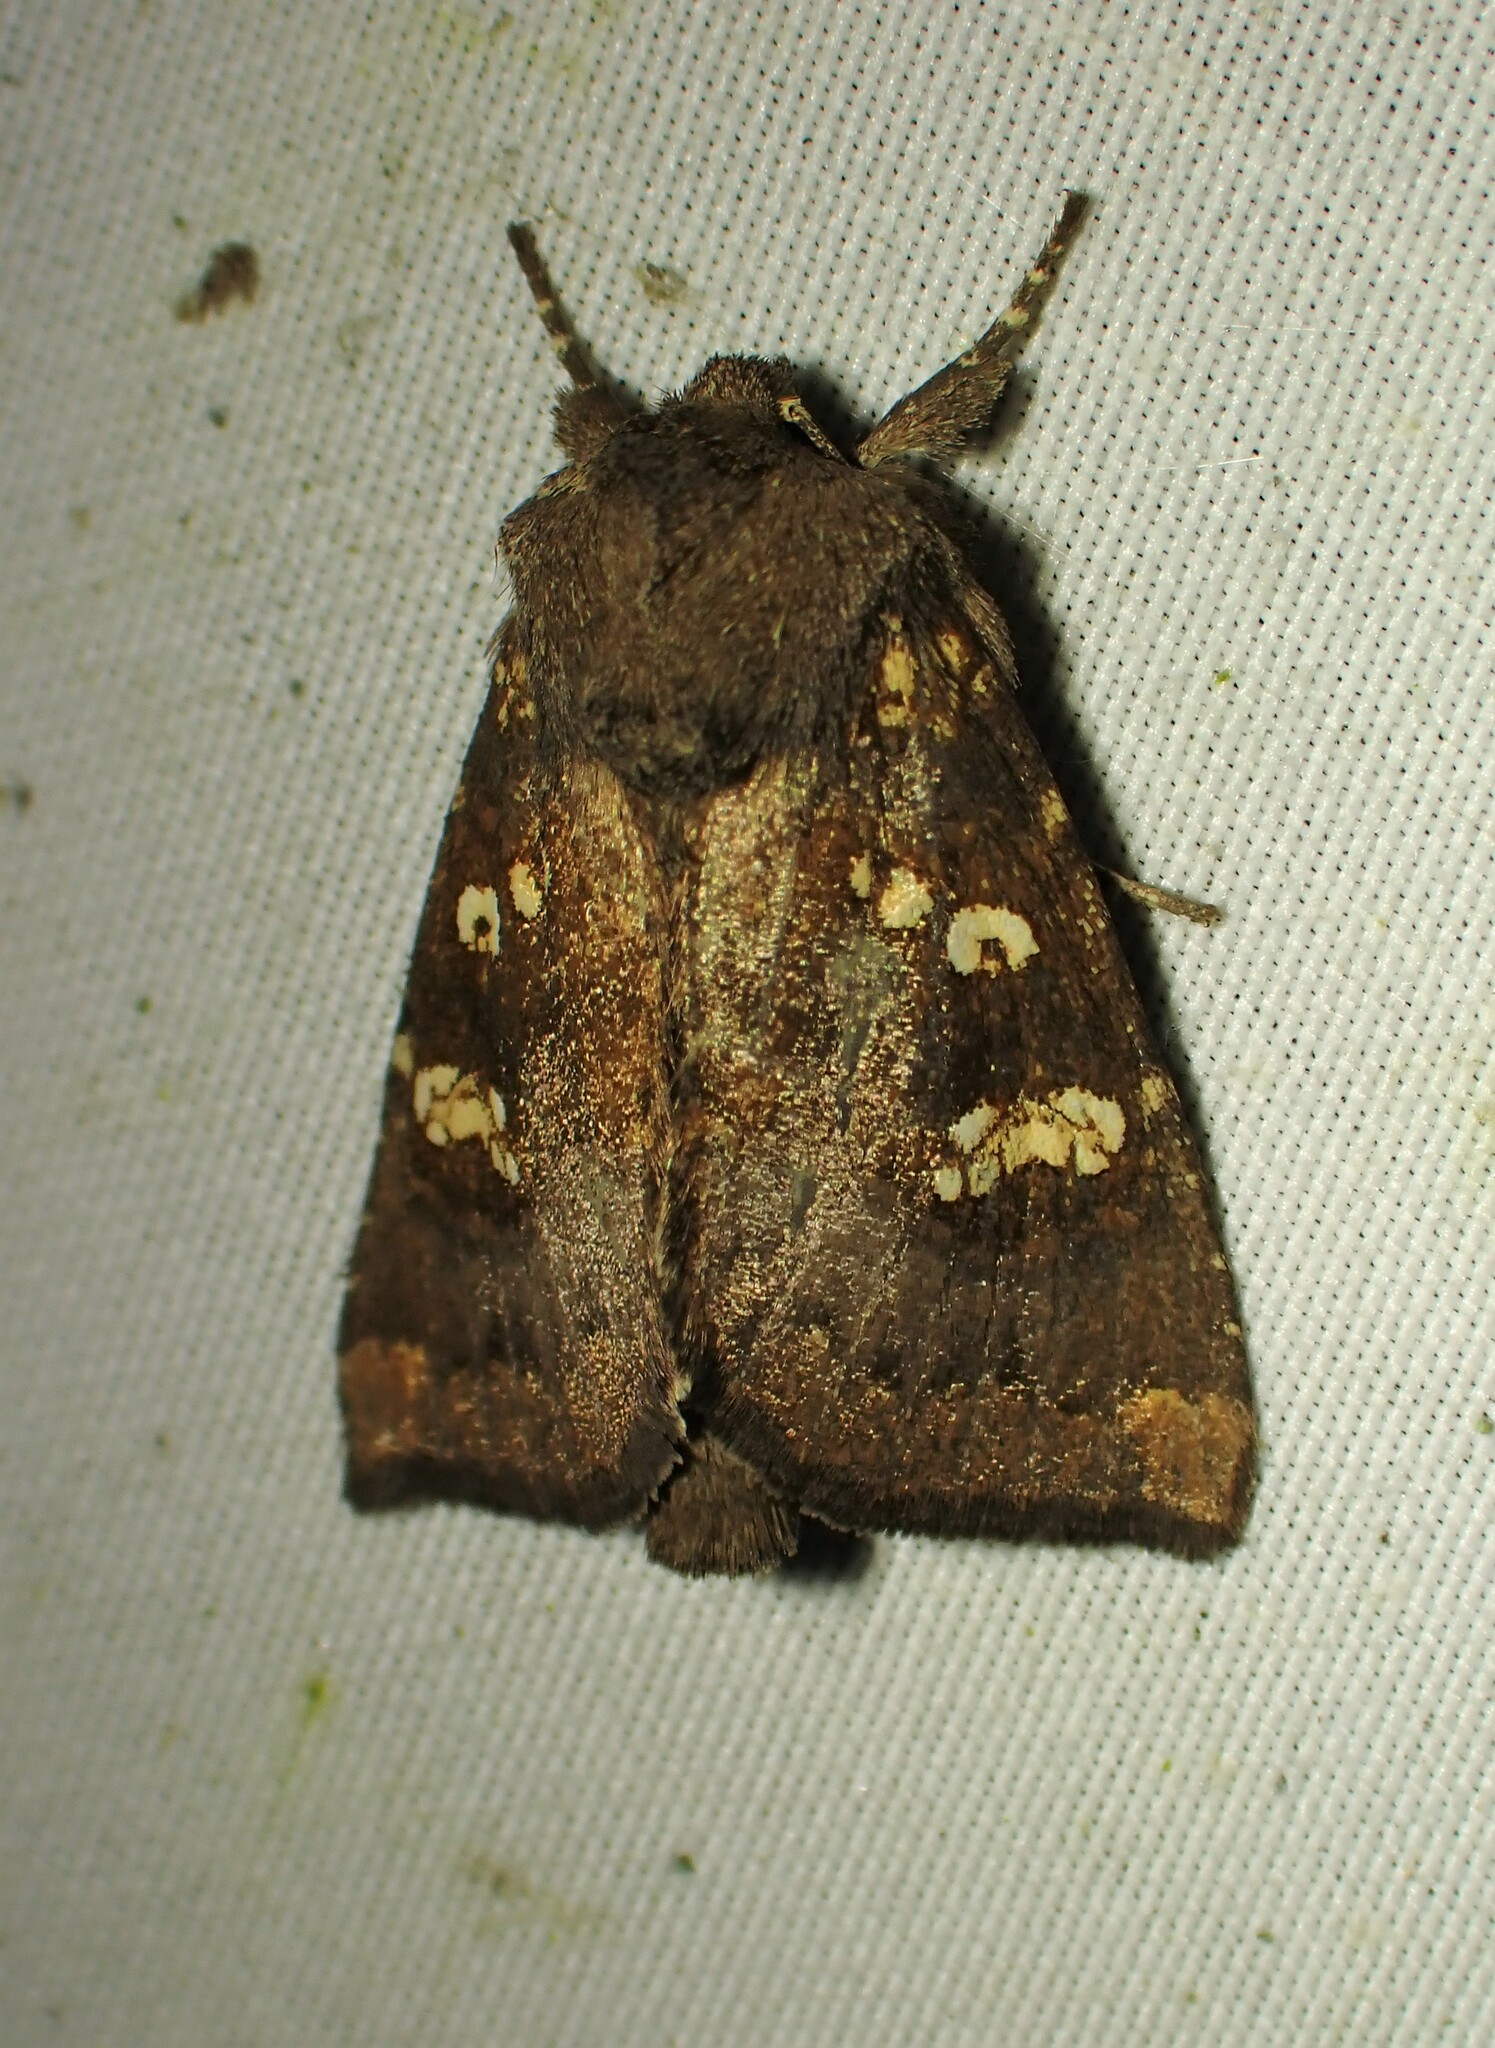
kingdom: Animalia
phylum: Arthropoda
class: Insecta
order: Lepidoptera
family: Noctuidae
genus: Papaipema
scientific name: Papaipema unimoda
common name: Meadow rue borer moth
